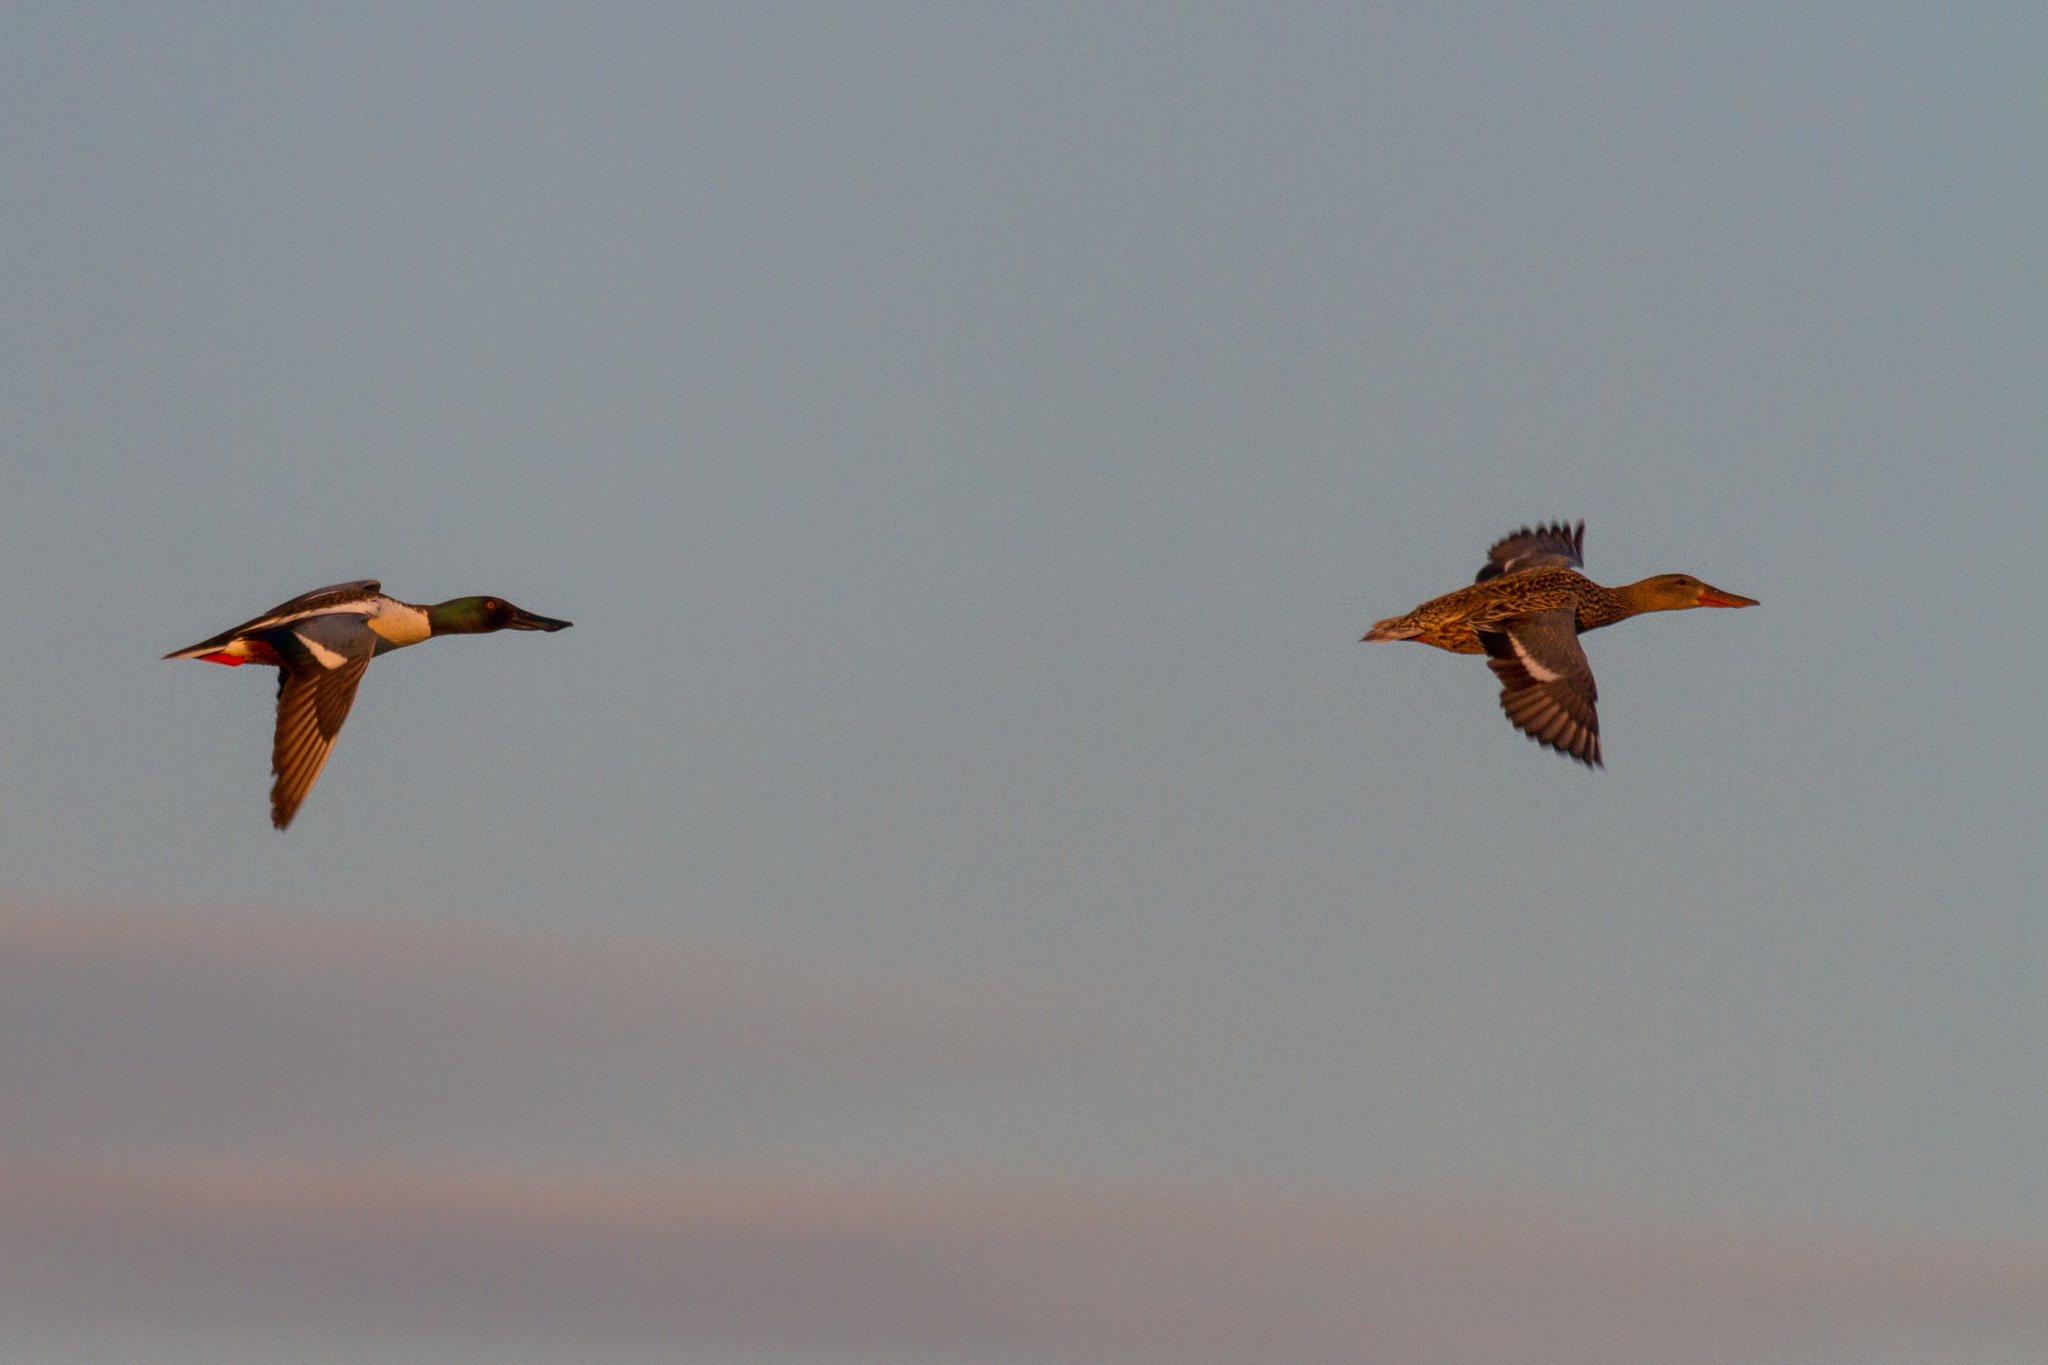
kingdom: Animalia
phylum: Chordata
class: Aves
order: Anseriformes
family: Anatidae
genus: Spatula
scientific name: Spatula clypeata
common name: Northern shoveler
